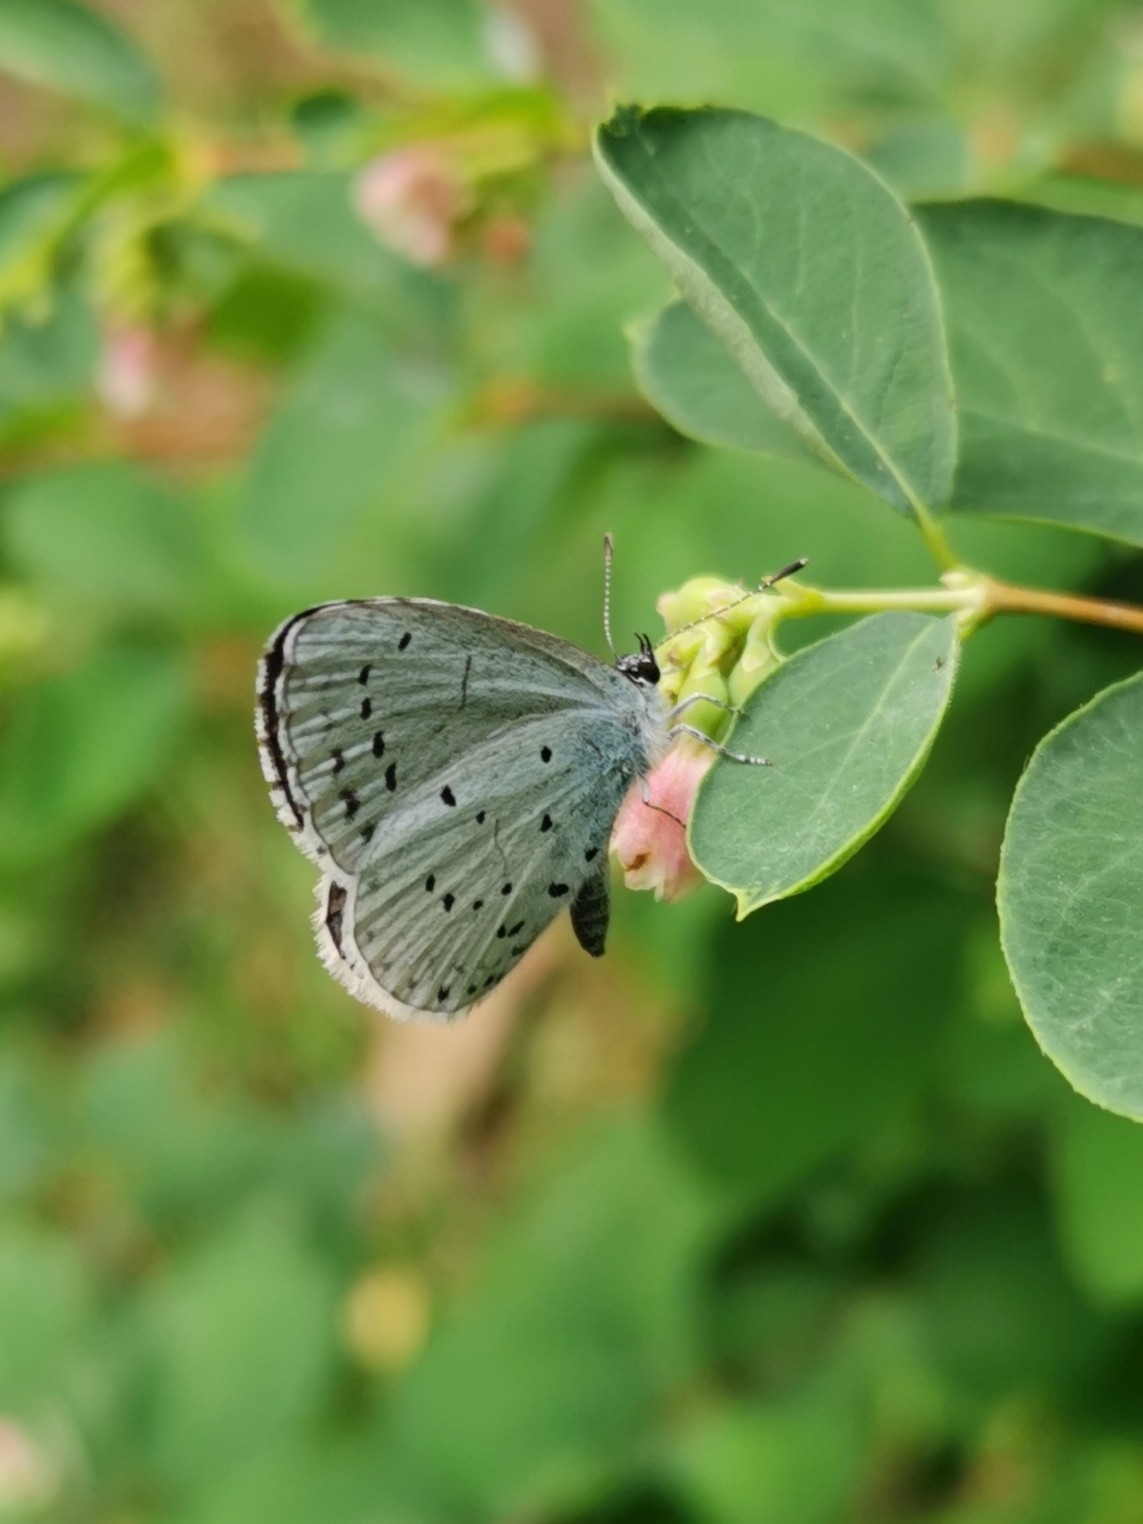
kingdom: Animalia
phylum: Arthropoda
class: Insecta
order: Lepidoptera
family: Lycaenidae
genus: Celastrina
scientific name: Celastrina argiolus
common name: Holly blue
